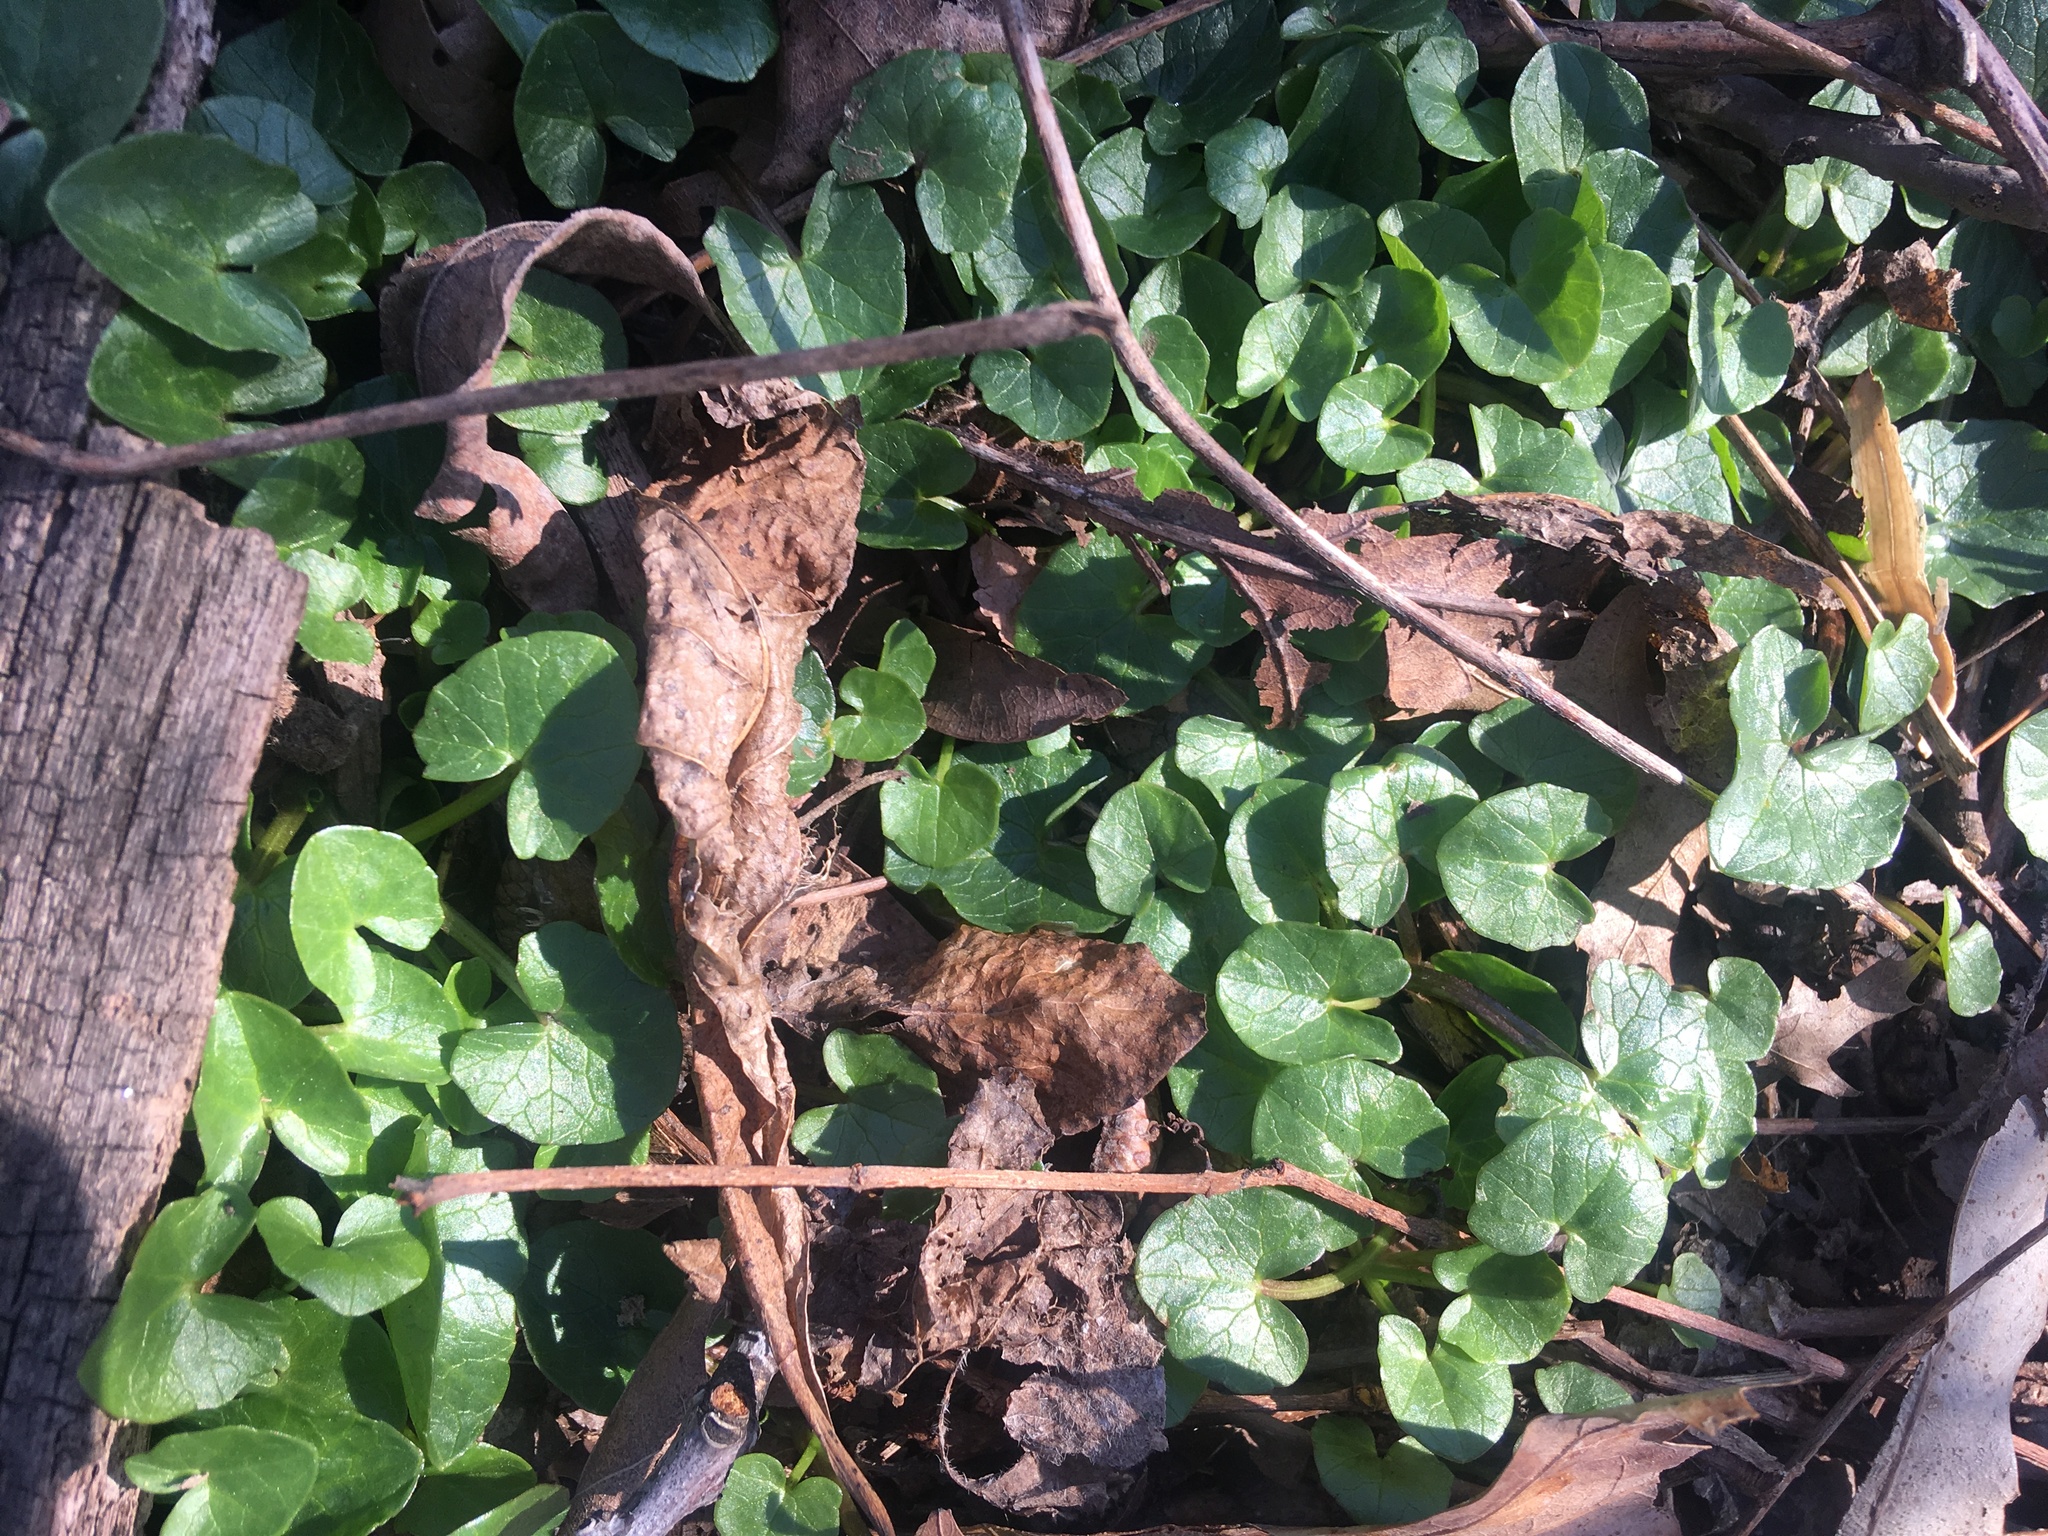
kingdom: Plantae
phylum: Tracheophyta
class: Magnoliopsida
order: Ranunculales
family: Ranunculaceae
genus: Ficaria
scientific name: Ficaria verna
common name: Lesser celandine
